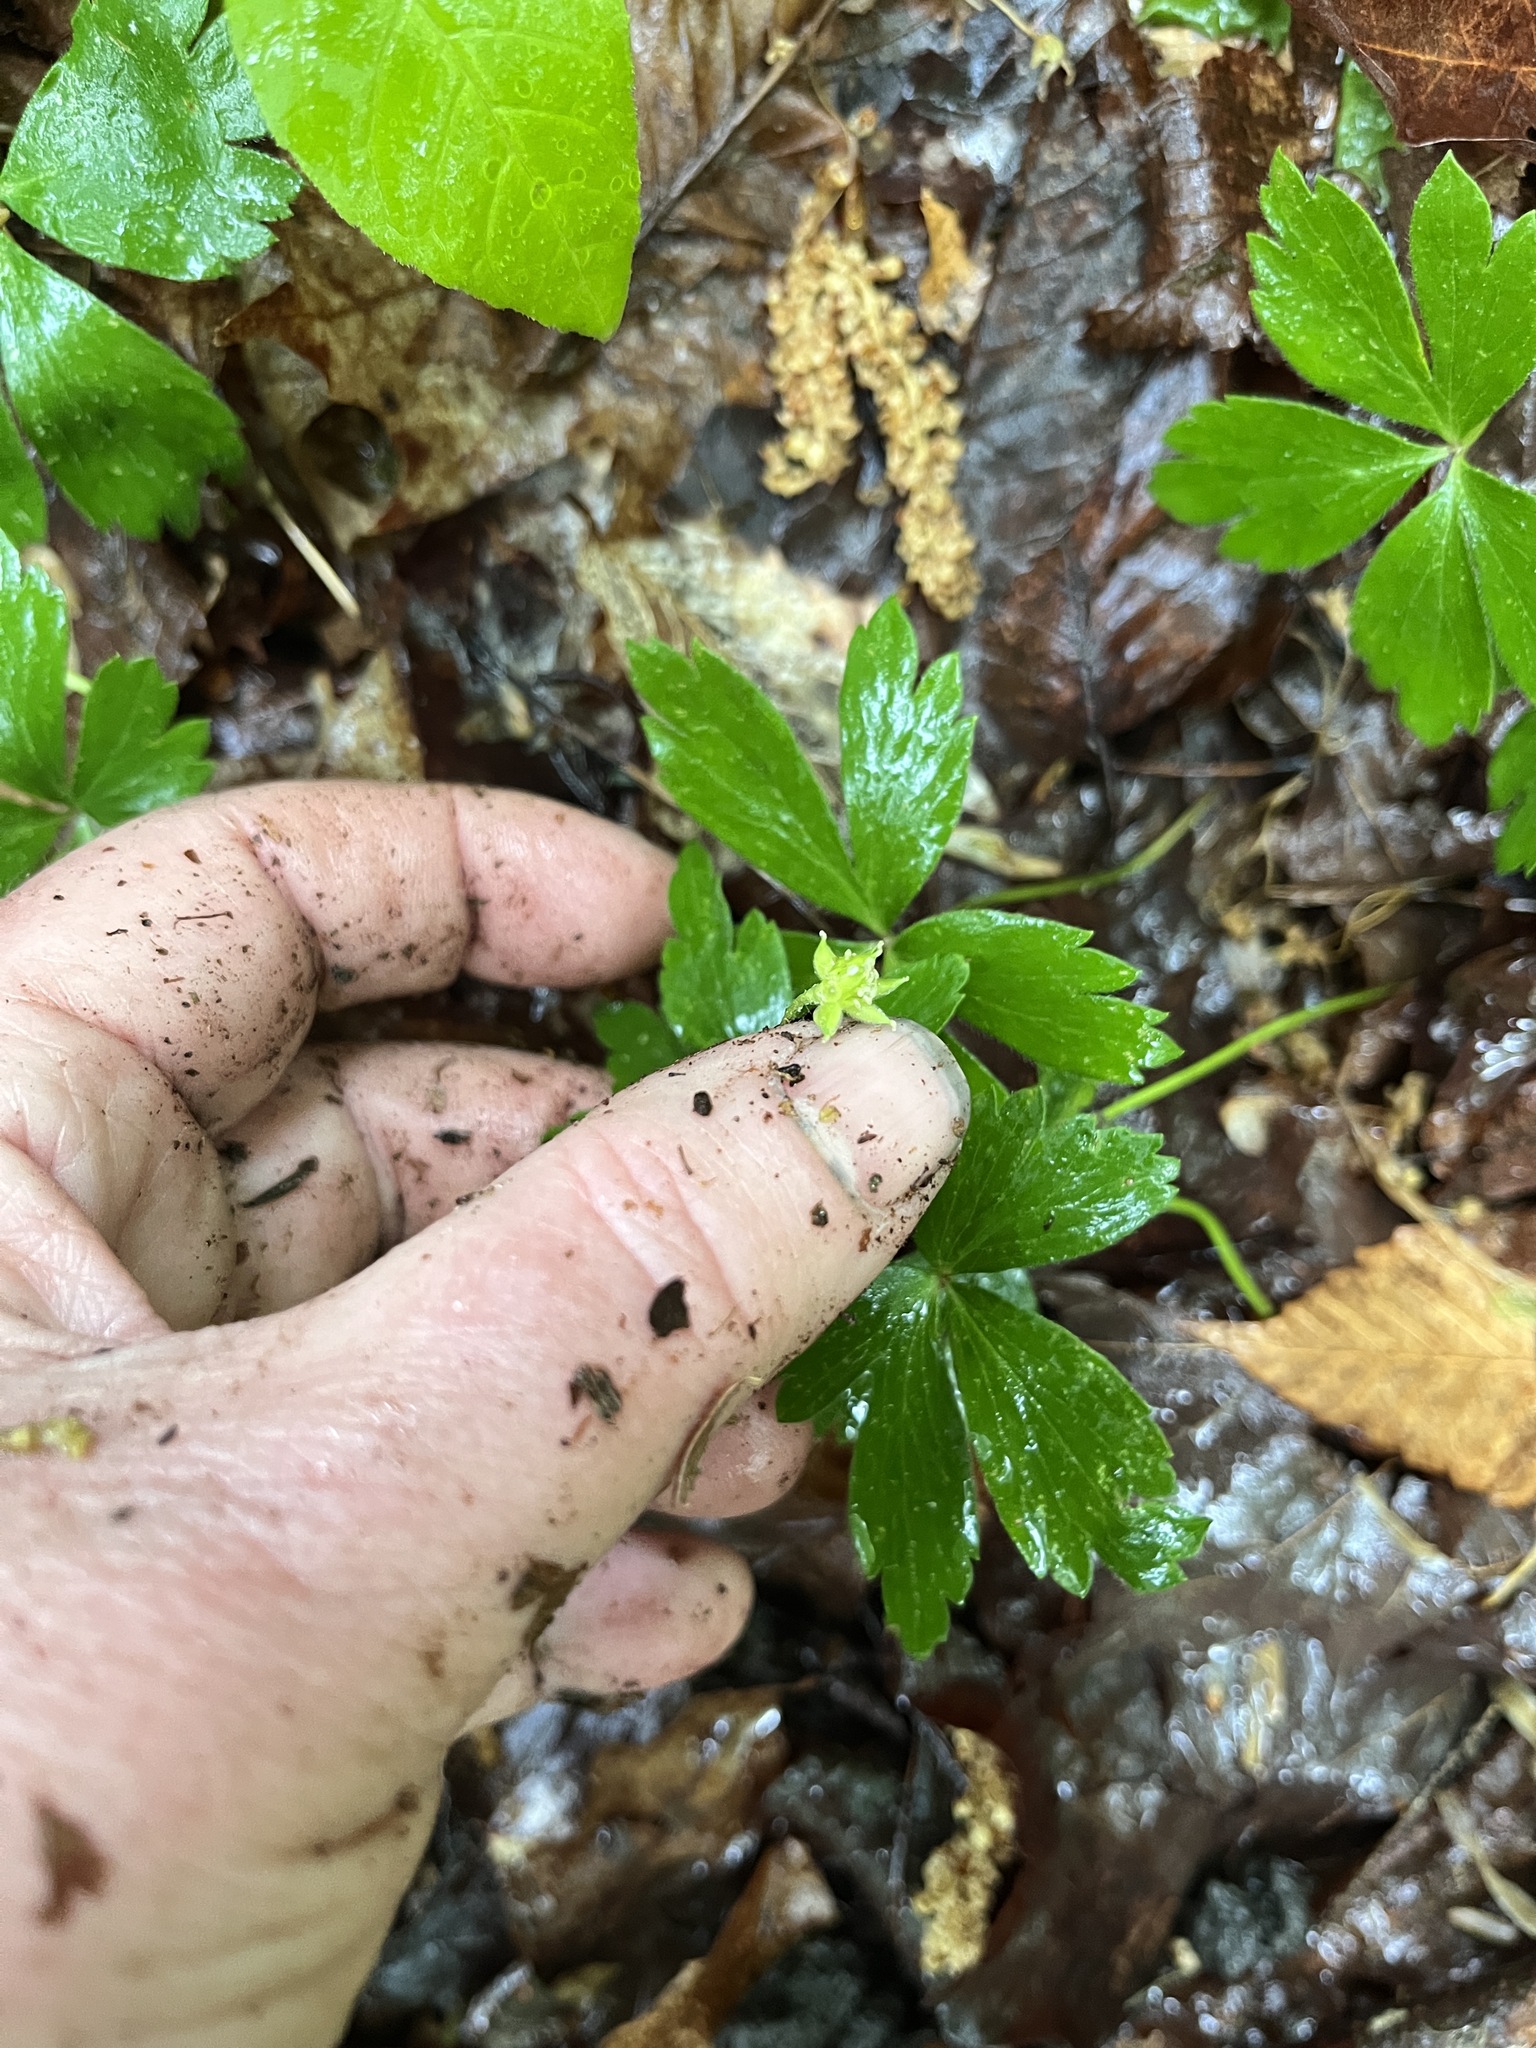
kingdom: Plantae
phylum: Tracheophyta
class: Magnoliopsida
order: Ranunculales
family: Ranunculaceae
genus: Anemone
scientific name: Anemone quinquefolia
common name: Wood anemone
